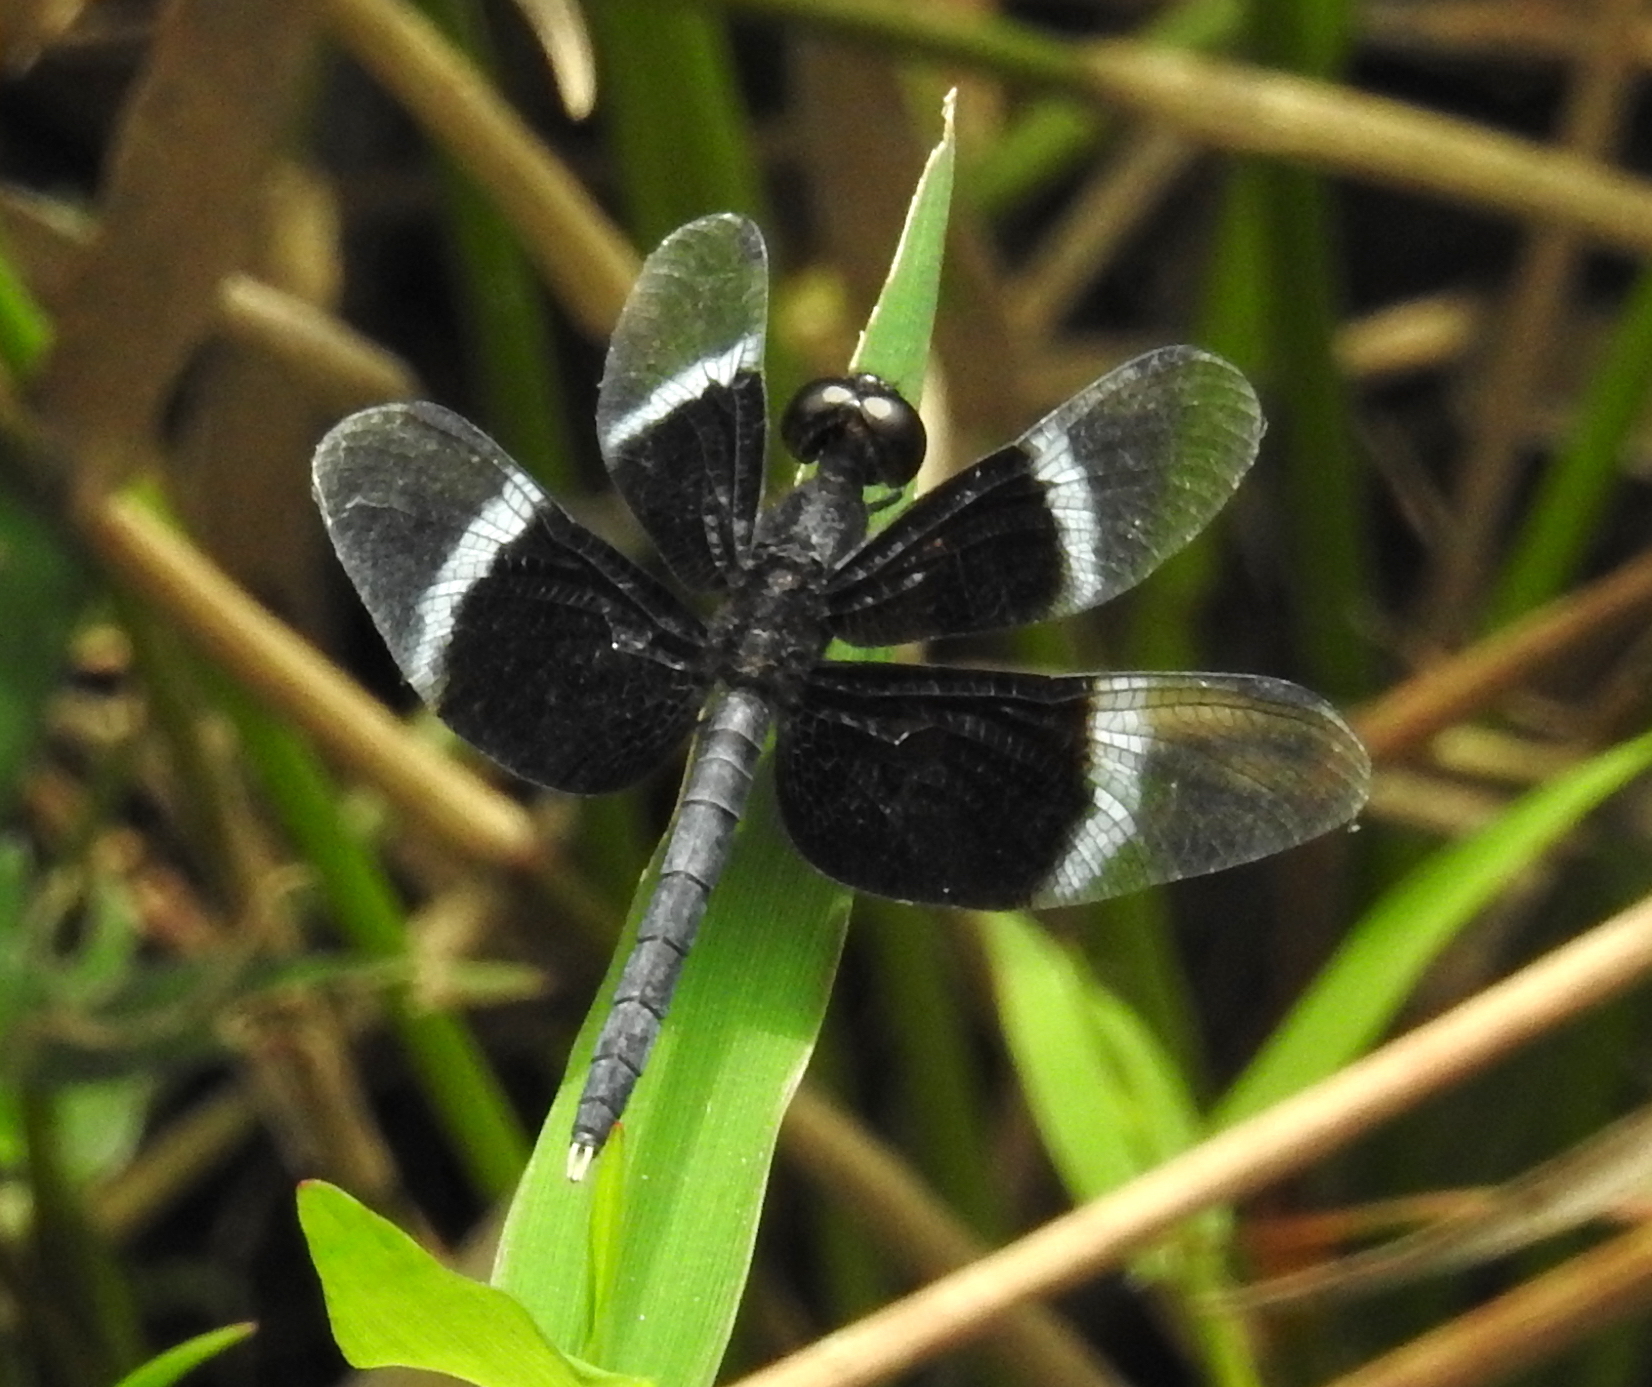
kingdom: Animalia
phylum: Arthropoda
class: Insecta
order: Odonata
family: Libellulidae
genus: Neurothemis
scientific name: Neurothemis tullia
